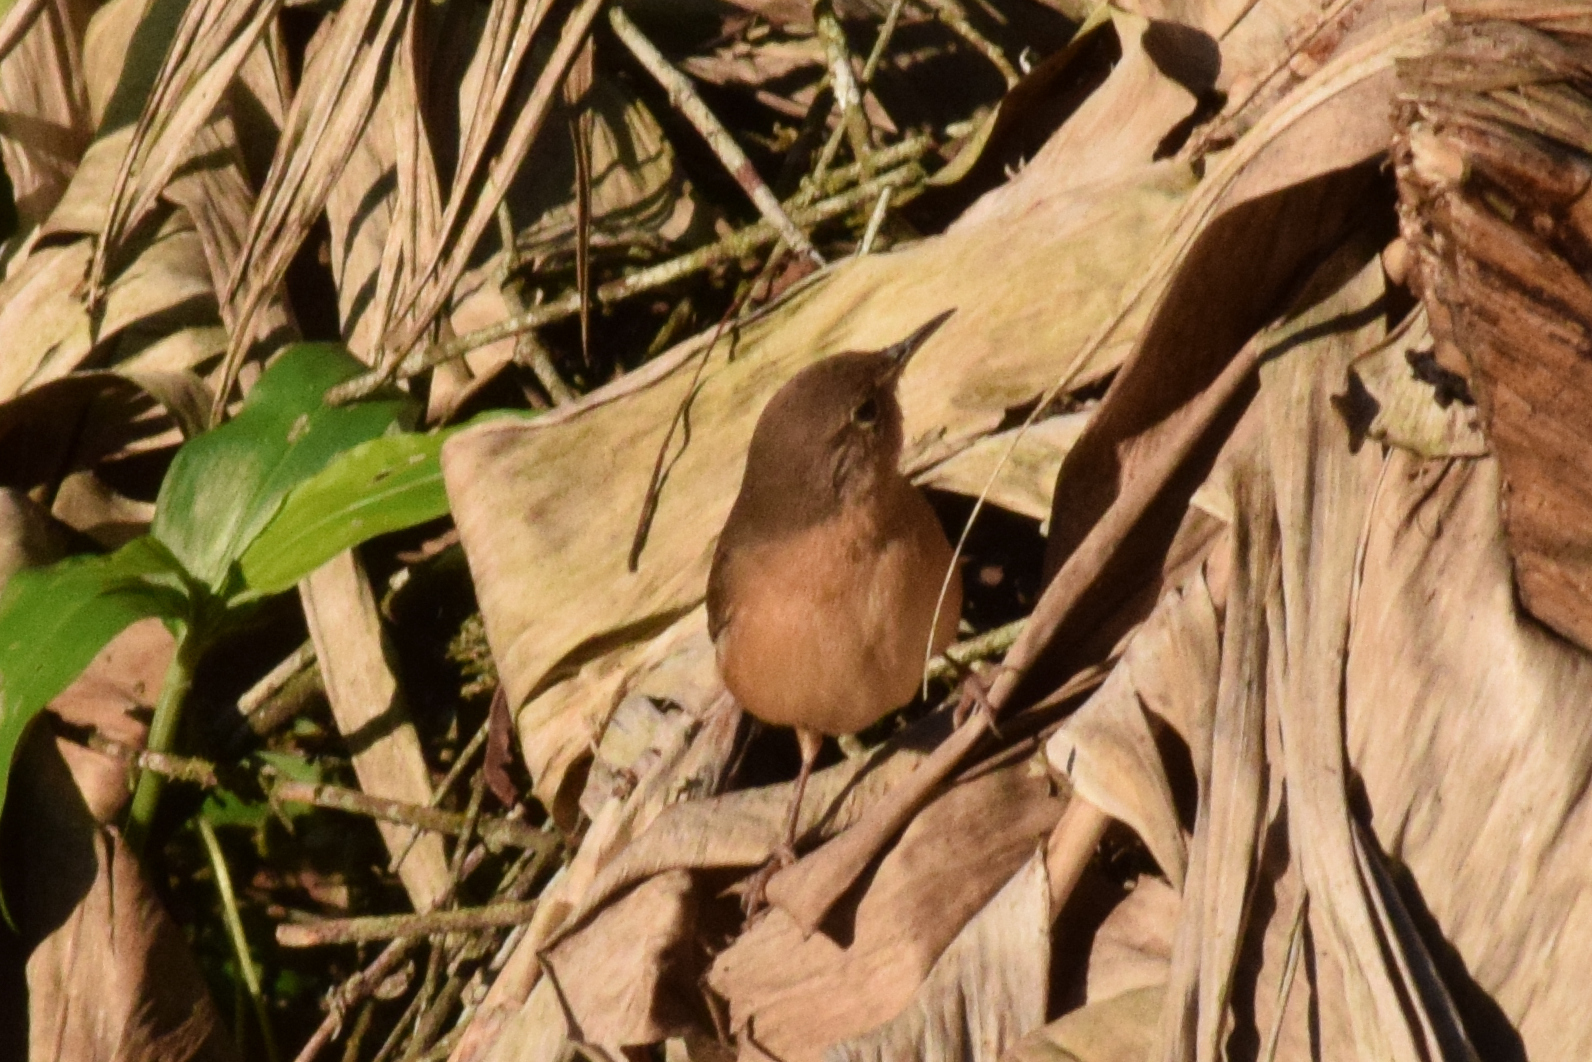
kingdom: Animalia
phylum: Chordata
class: Aves
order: Passeriformes
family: Troglodytidae
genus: Troglodytes
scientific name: Troglodytes aedon
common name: House wren
